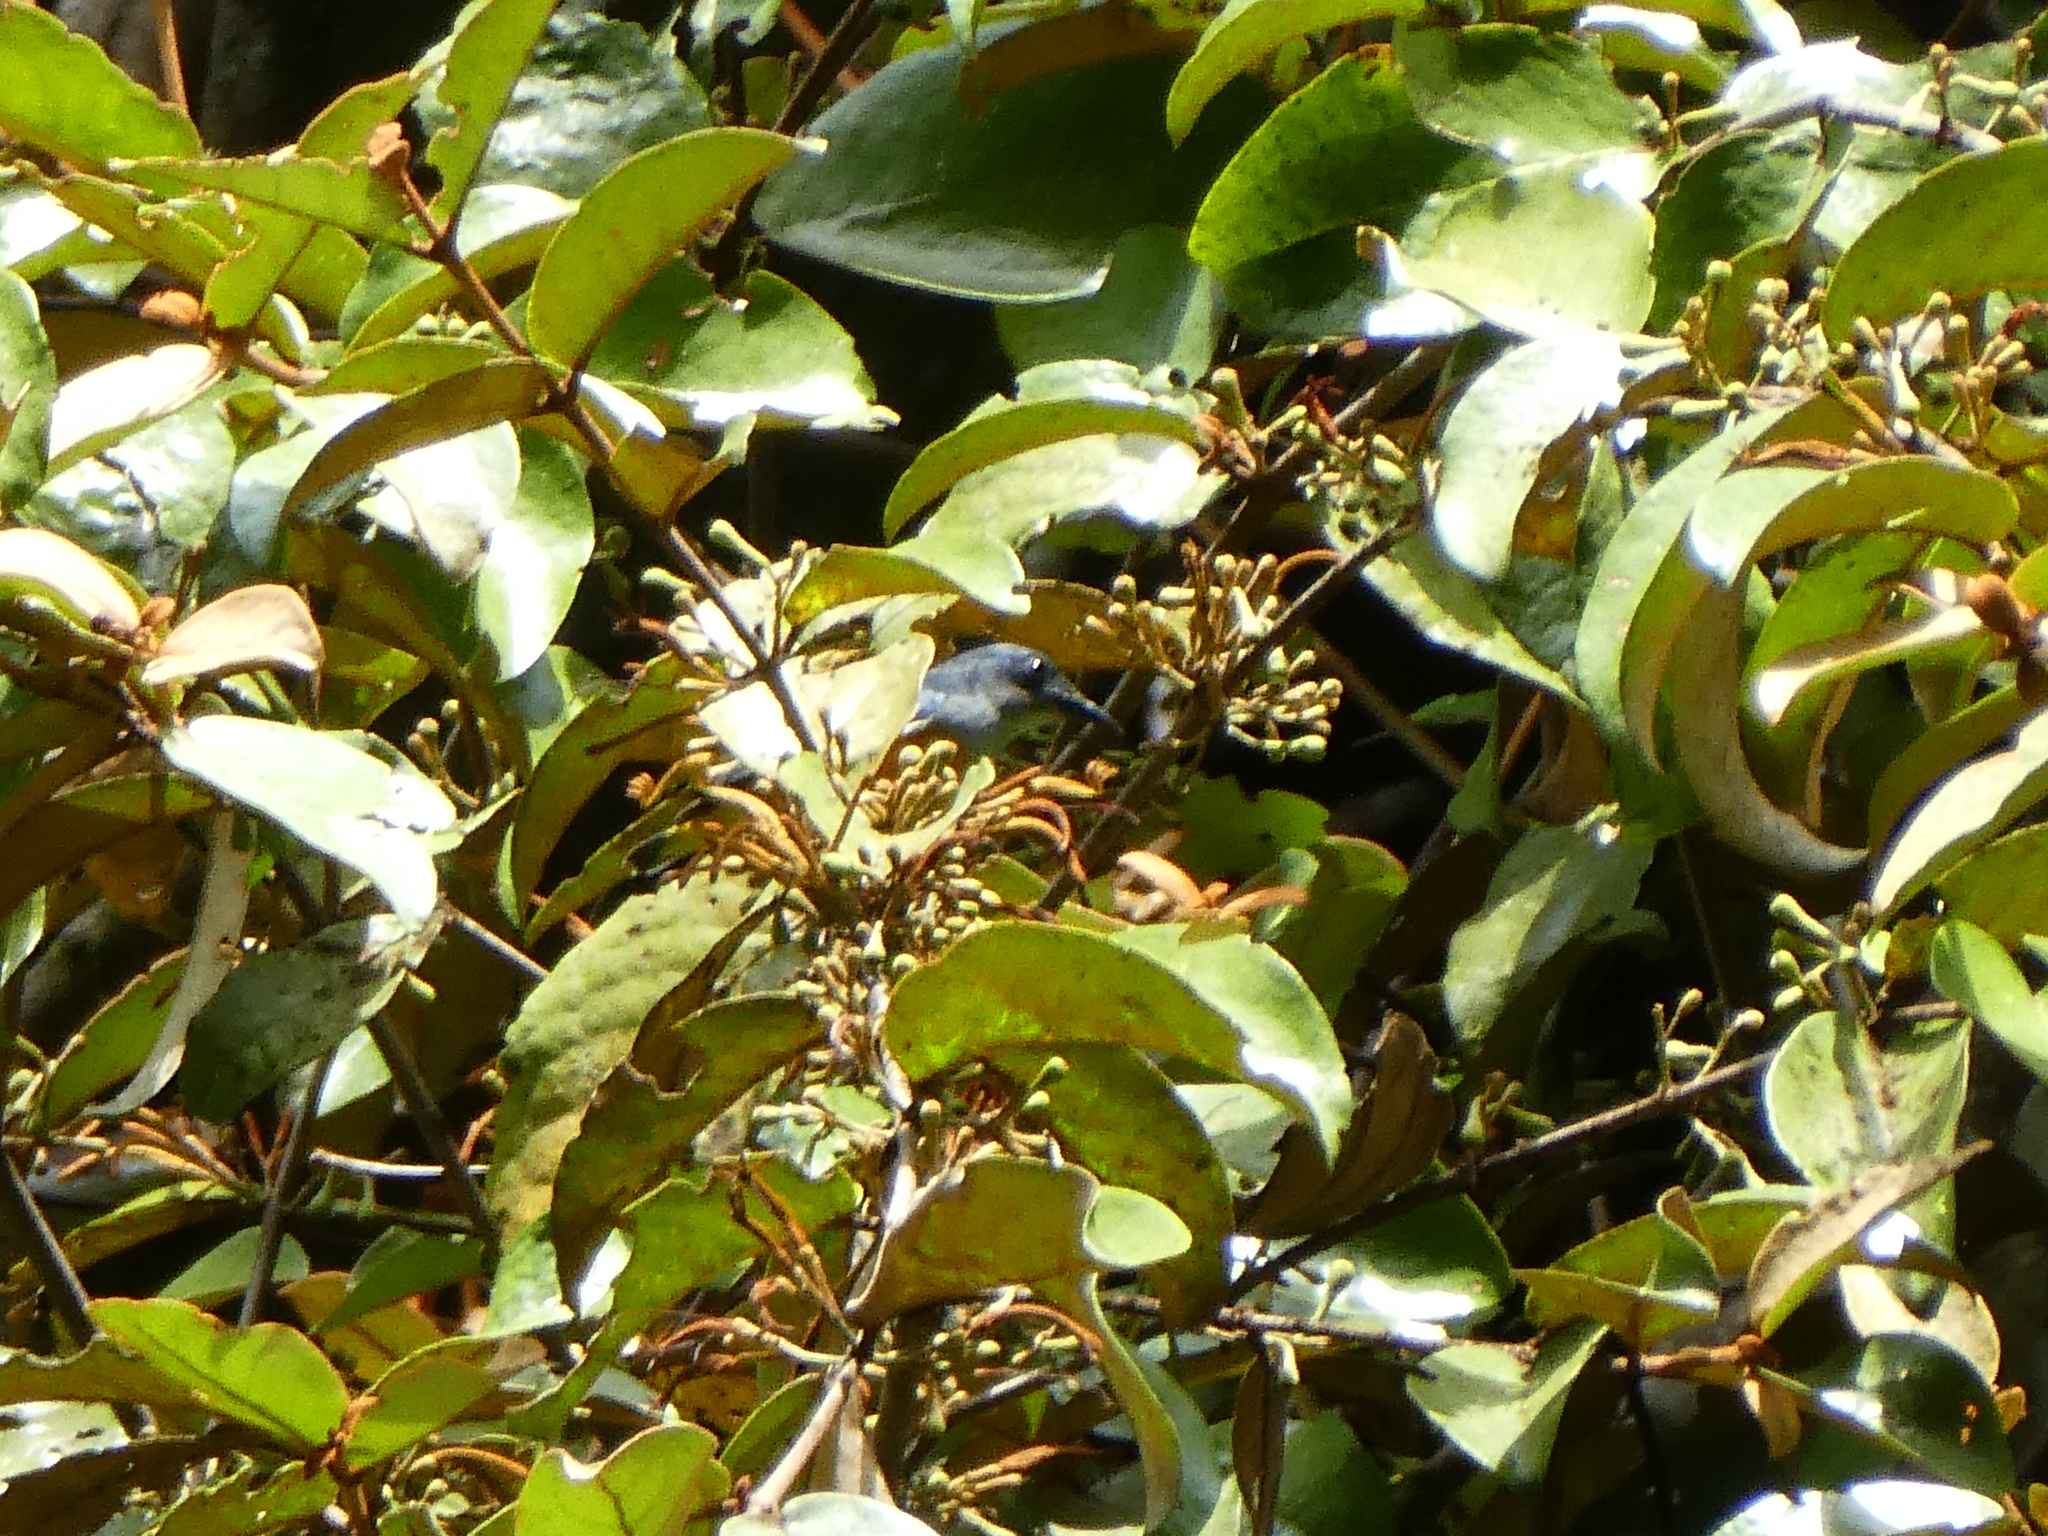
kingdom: Animalia
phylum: Chordata
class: Aves
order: Passeriformes
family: Dicaeidae
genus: Dicaeum
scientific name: Dicaeum trigonostigma
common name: Orange-bellied flowerpecker
